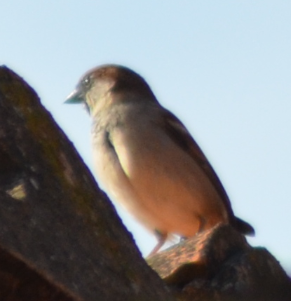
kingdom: Animalia
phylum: Chordata
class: Aves
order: Passeriformes
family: Passeridae
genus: Passer
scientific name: Passer domesticus
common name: House sparrow
